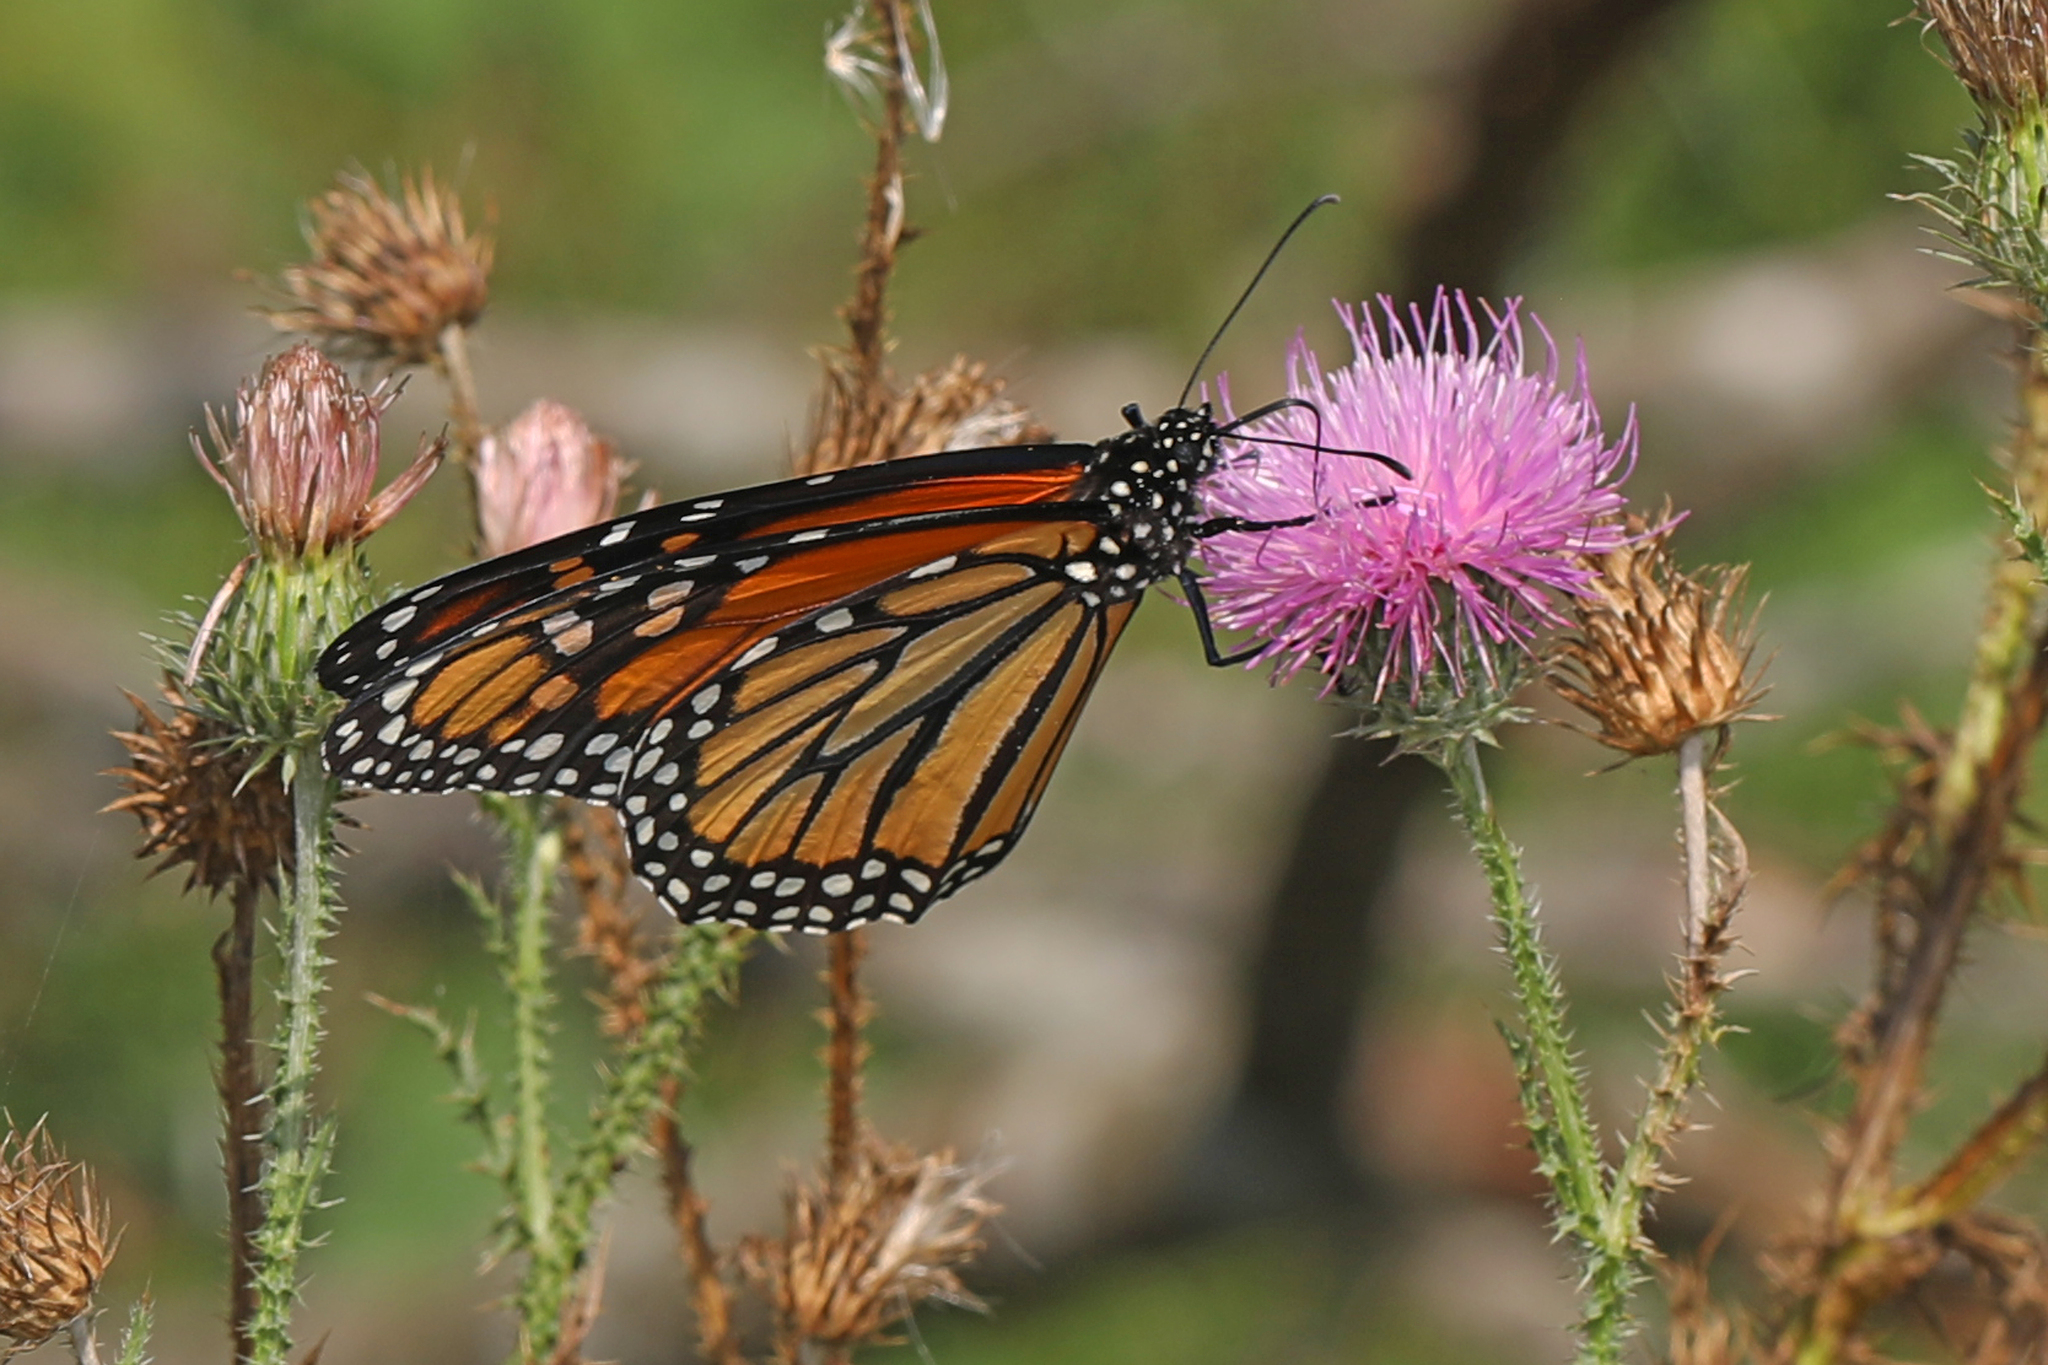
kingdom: Animalia
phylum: Arthropoda
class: Insecta
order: Lepidoptera
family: Nymphalidae
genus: Danaus
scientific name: Danaus plexippus
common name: Monarch
